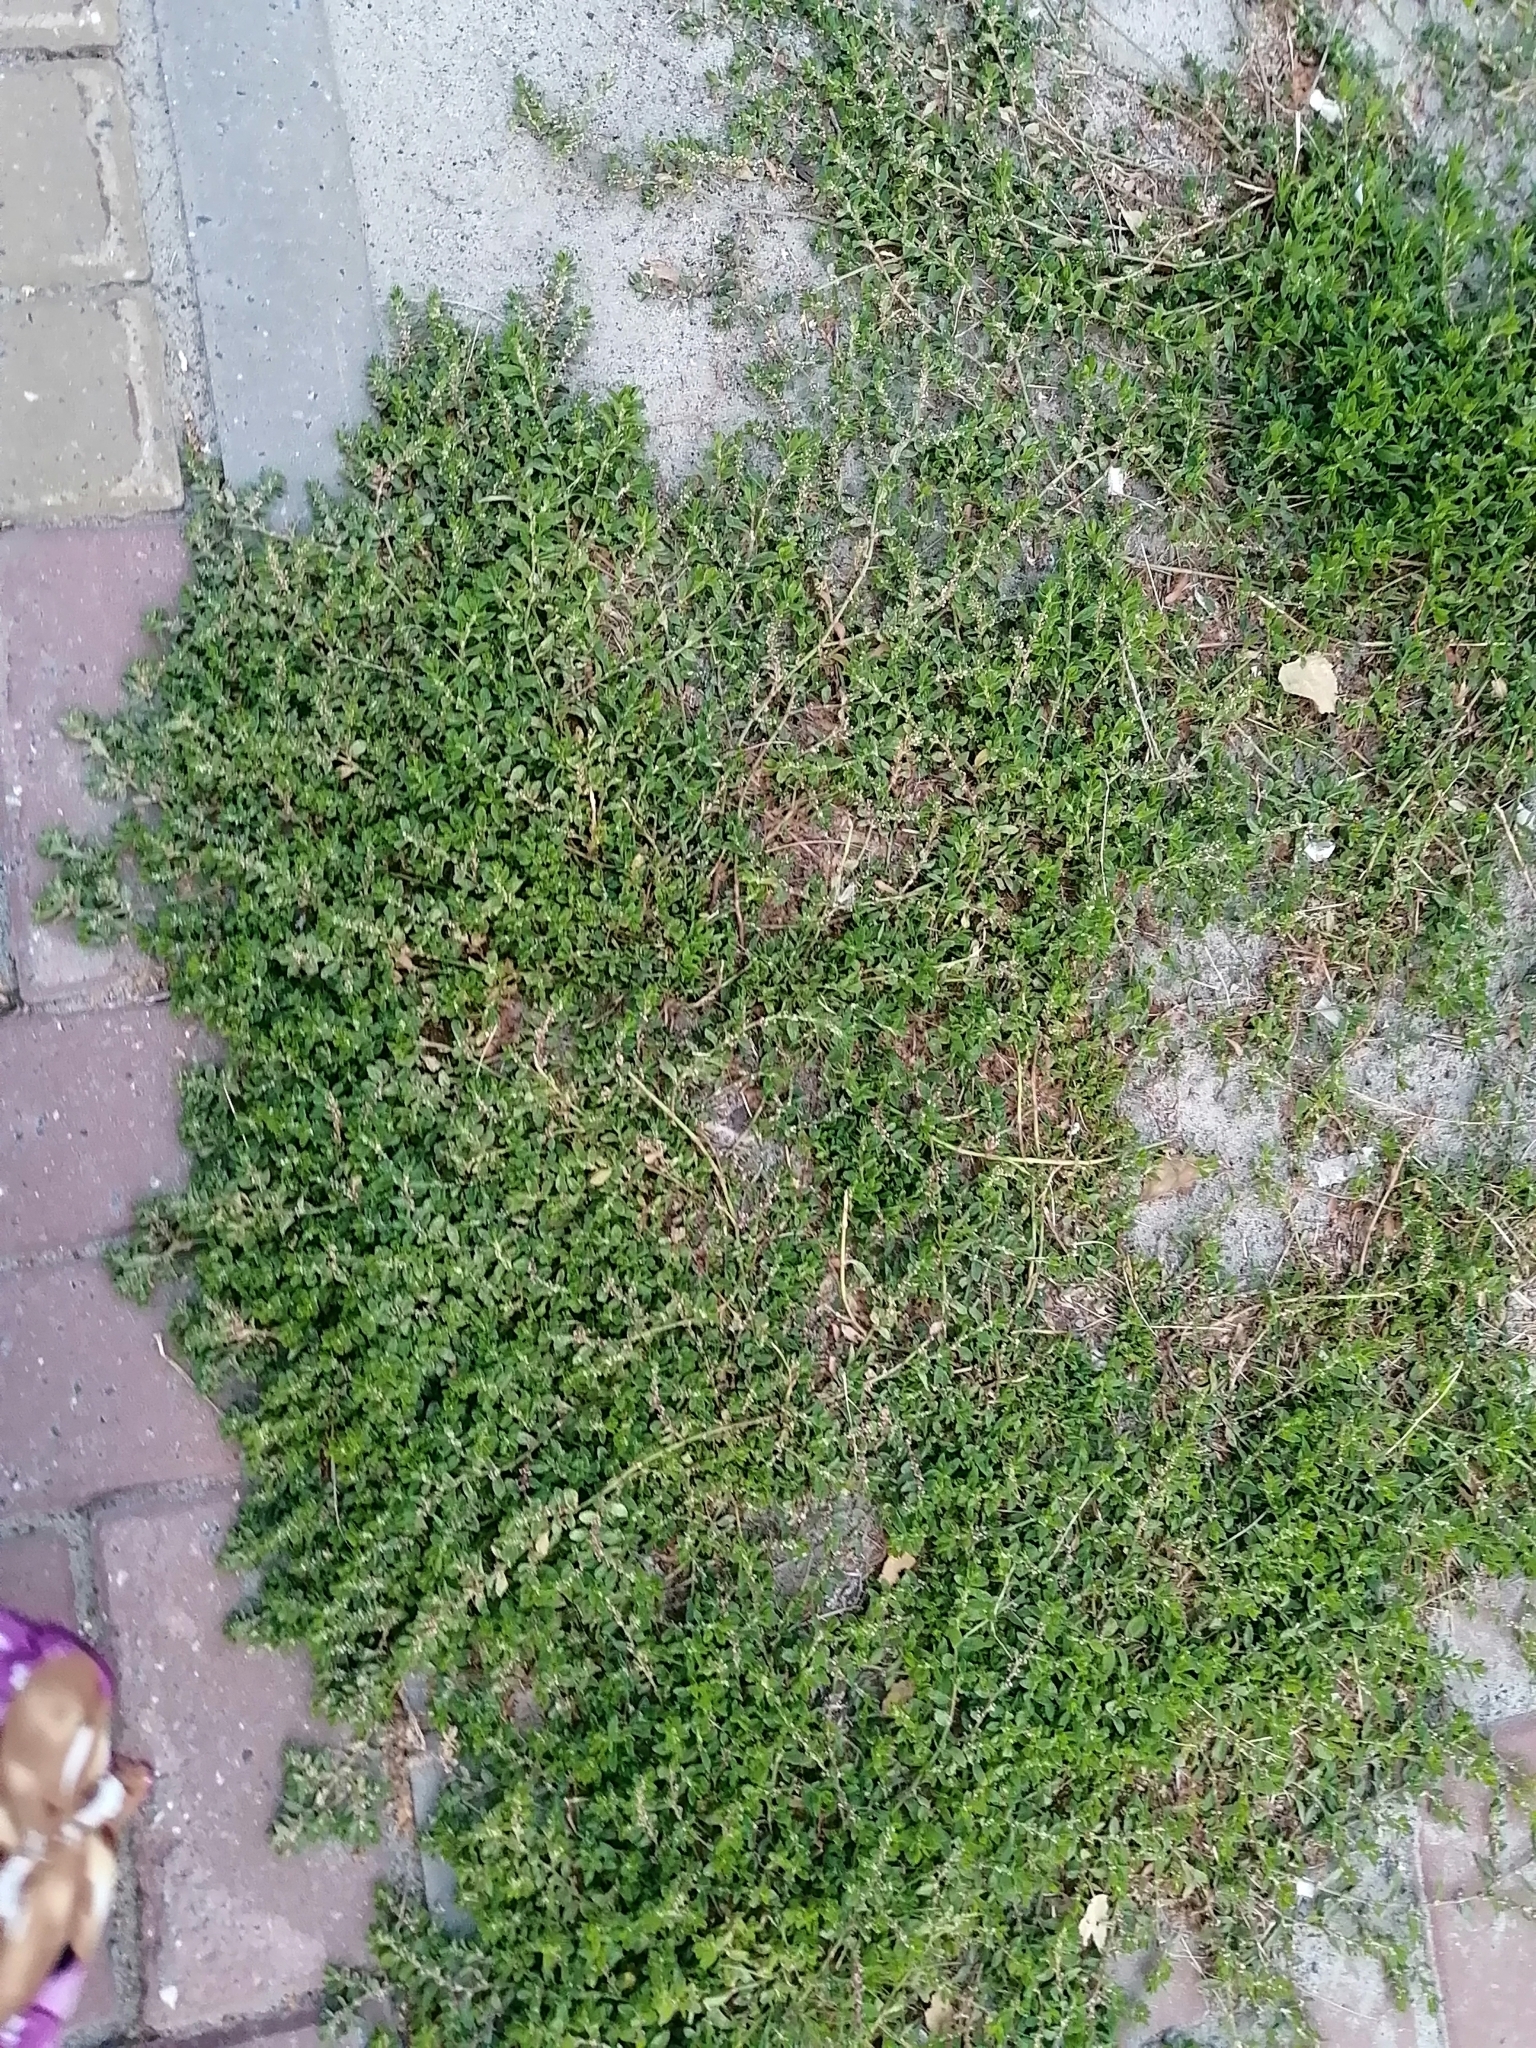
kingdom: Plantae
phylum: Tracheophyta
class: Magnoliopsida
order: Caryophyllales
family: Polygonaceae
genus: Polygonum
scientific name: Polygonum aviculare
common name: Prostrate knotweed
